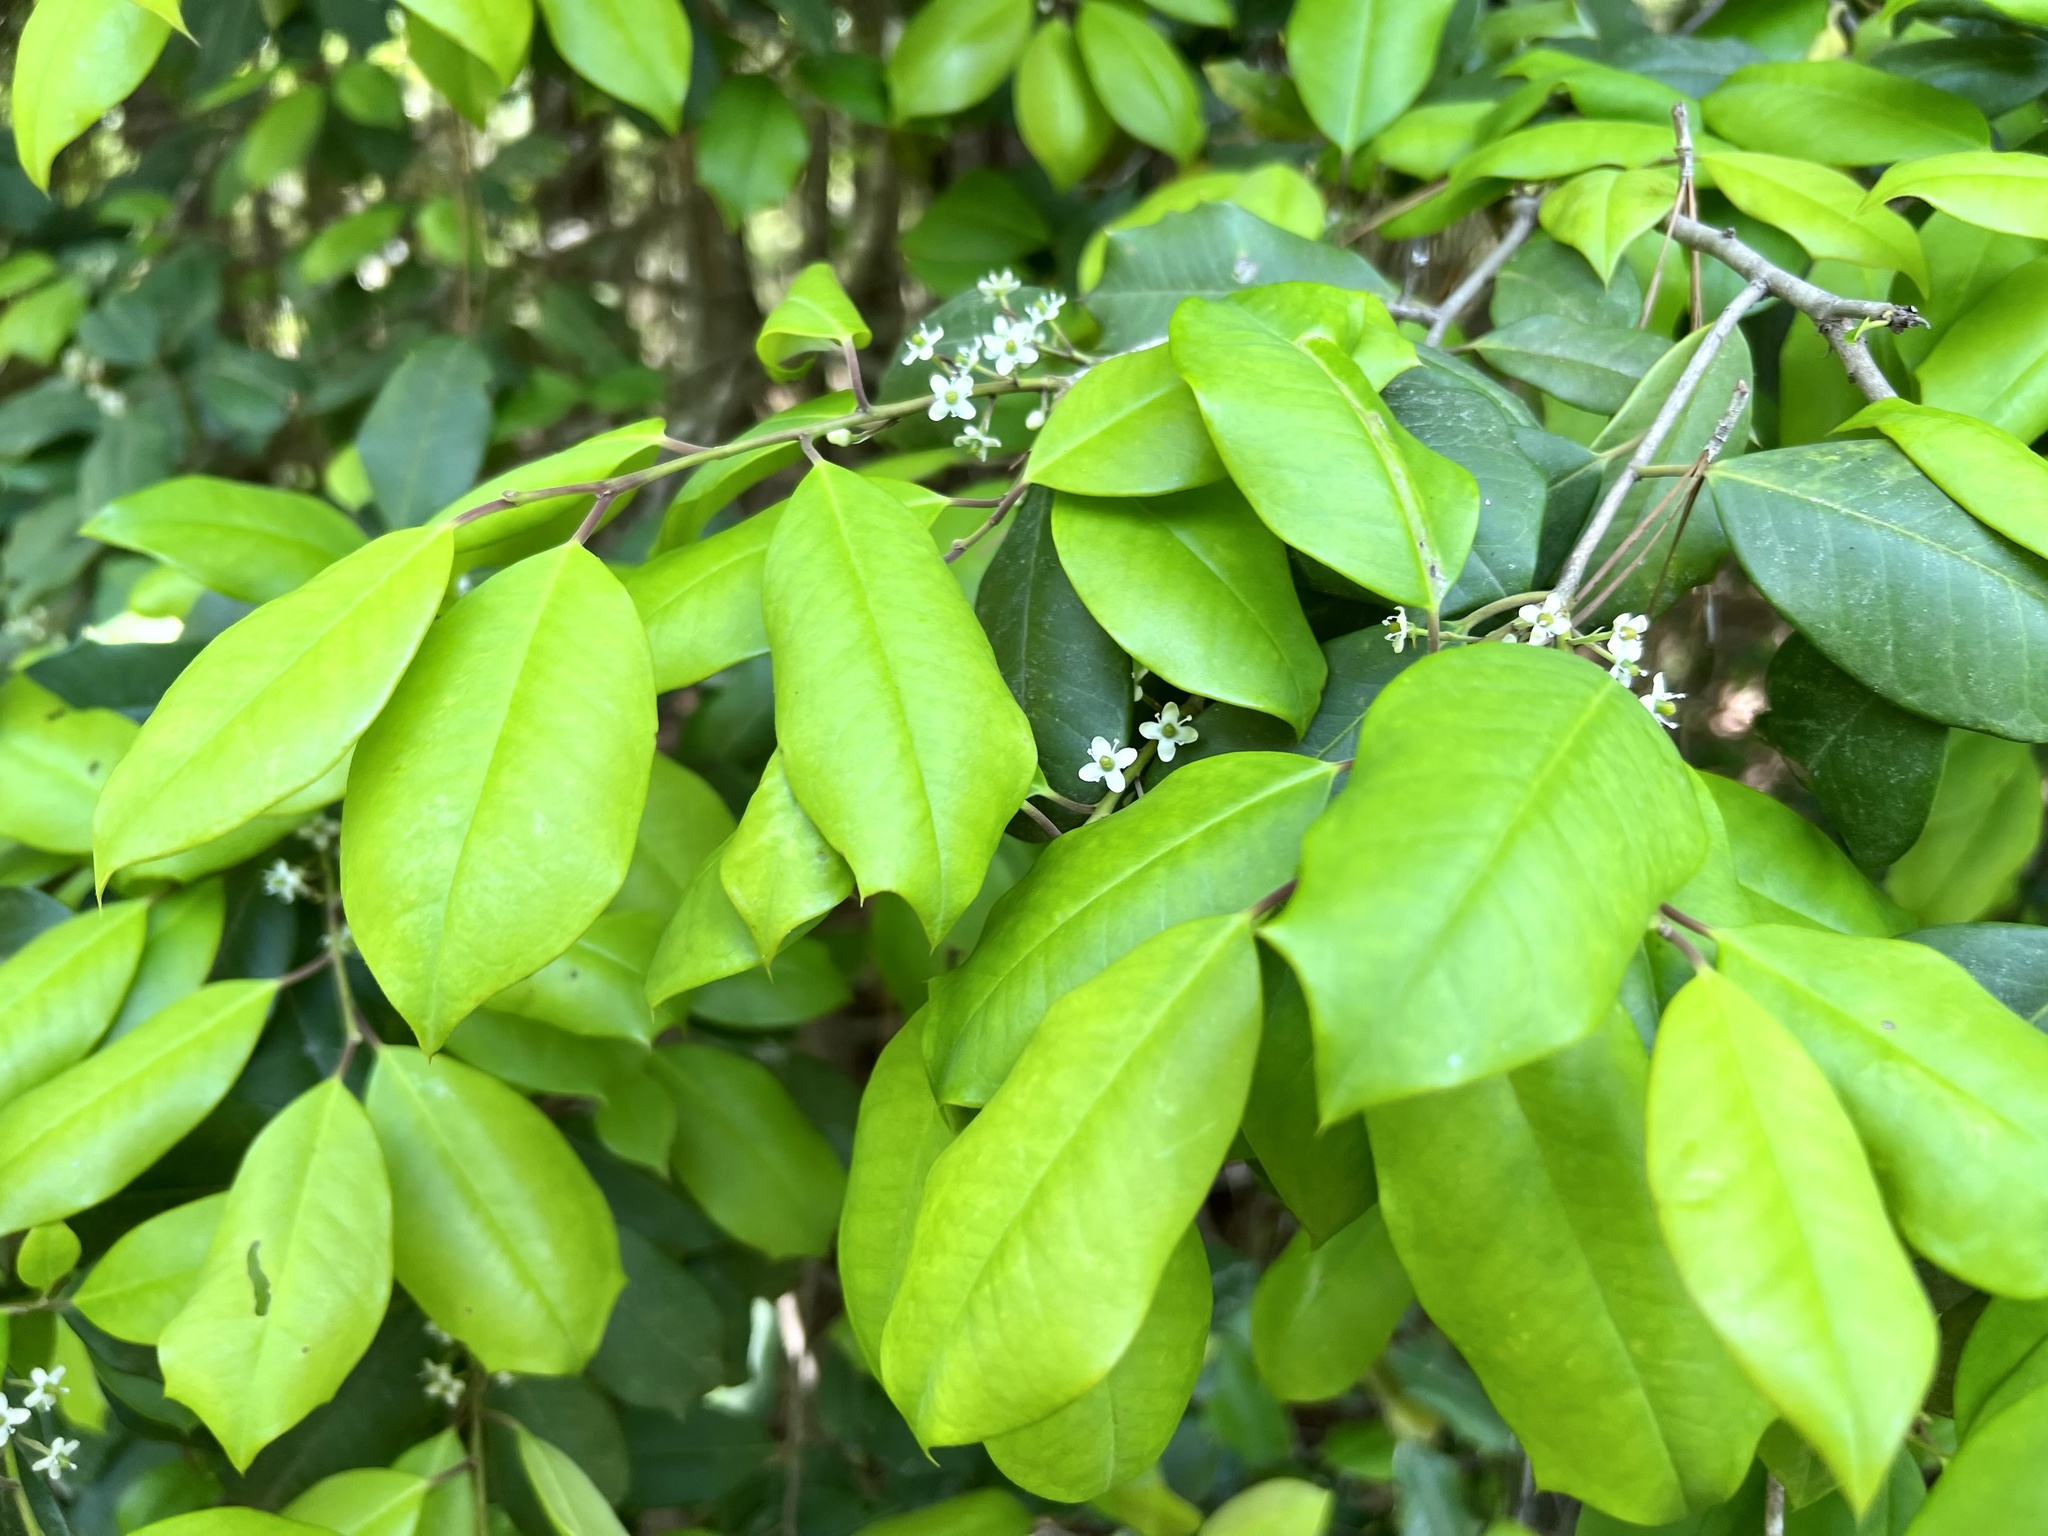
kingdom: Plantae
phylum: Tracheophyta
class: Magnoliopsida
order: Aquifoliales
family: Aquifoliaceae
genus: Ilex
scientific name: Ilex opaca
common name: American holly
